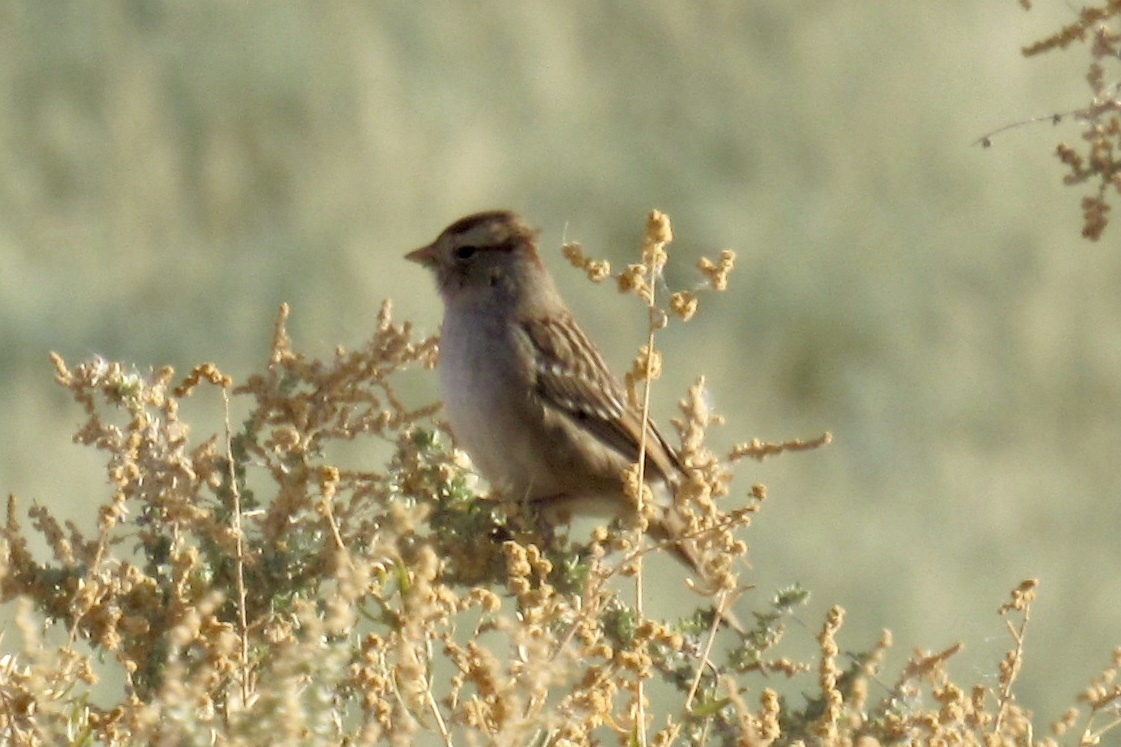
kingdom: Animalia
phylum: Chordata
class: Aves
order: Passeriformes
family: Passerellidae
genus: Zonotrichia
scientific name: Zonotrichia leucophrys
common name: White-crowned sparrow
